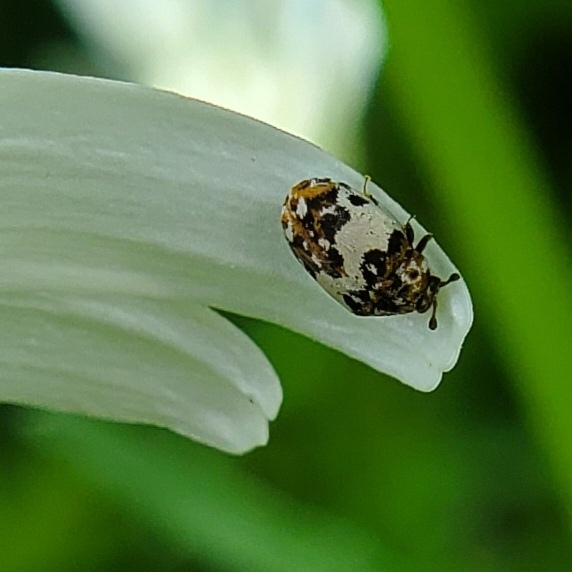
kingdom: Animalia
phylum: Arthropoda
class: Insecta
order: Coleoptera
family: Dermestidae
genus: Anthrenus
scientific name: Anthrenus verbasci
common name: Varied carpet beetle
